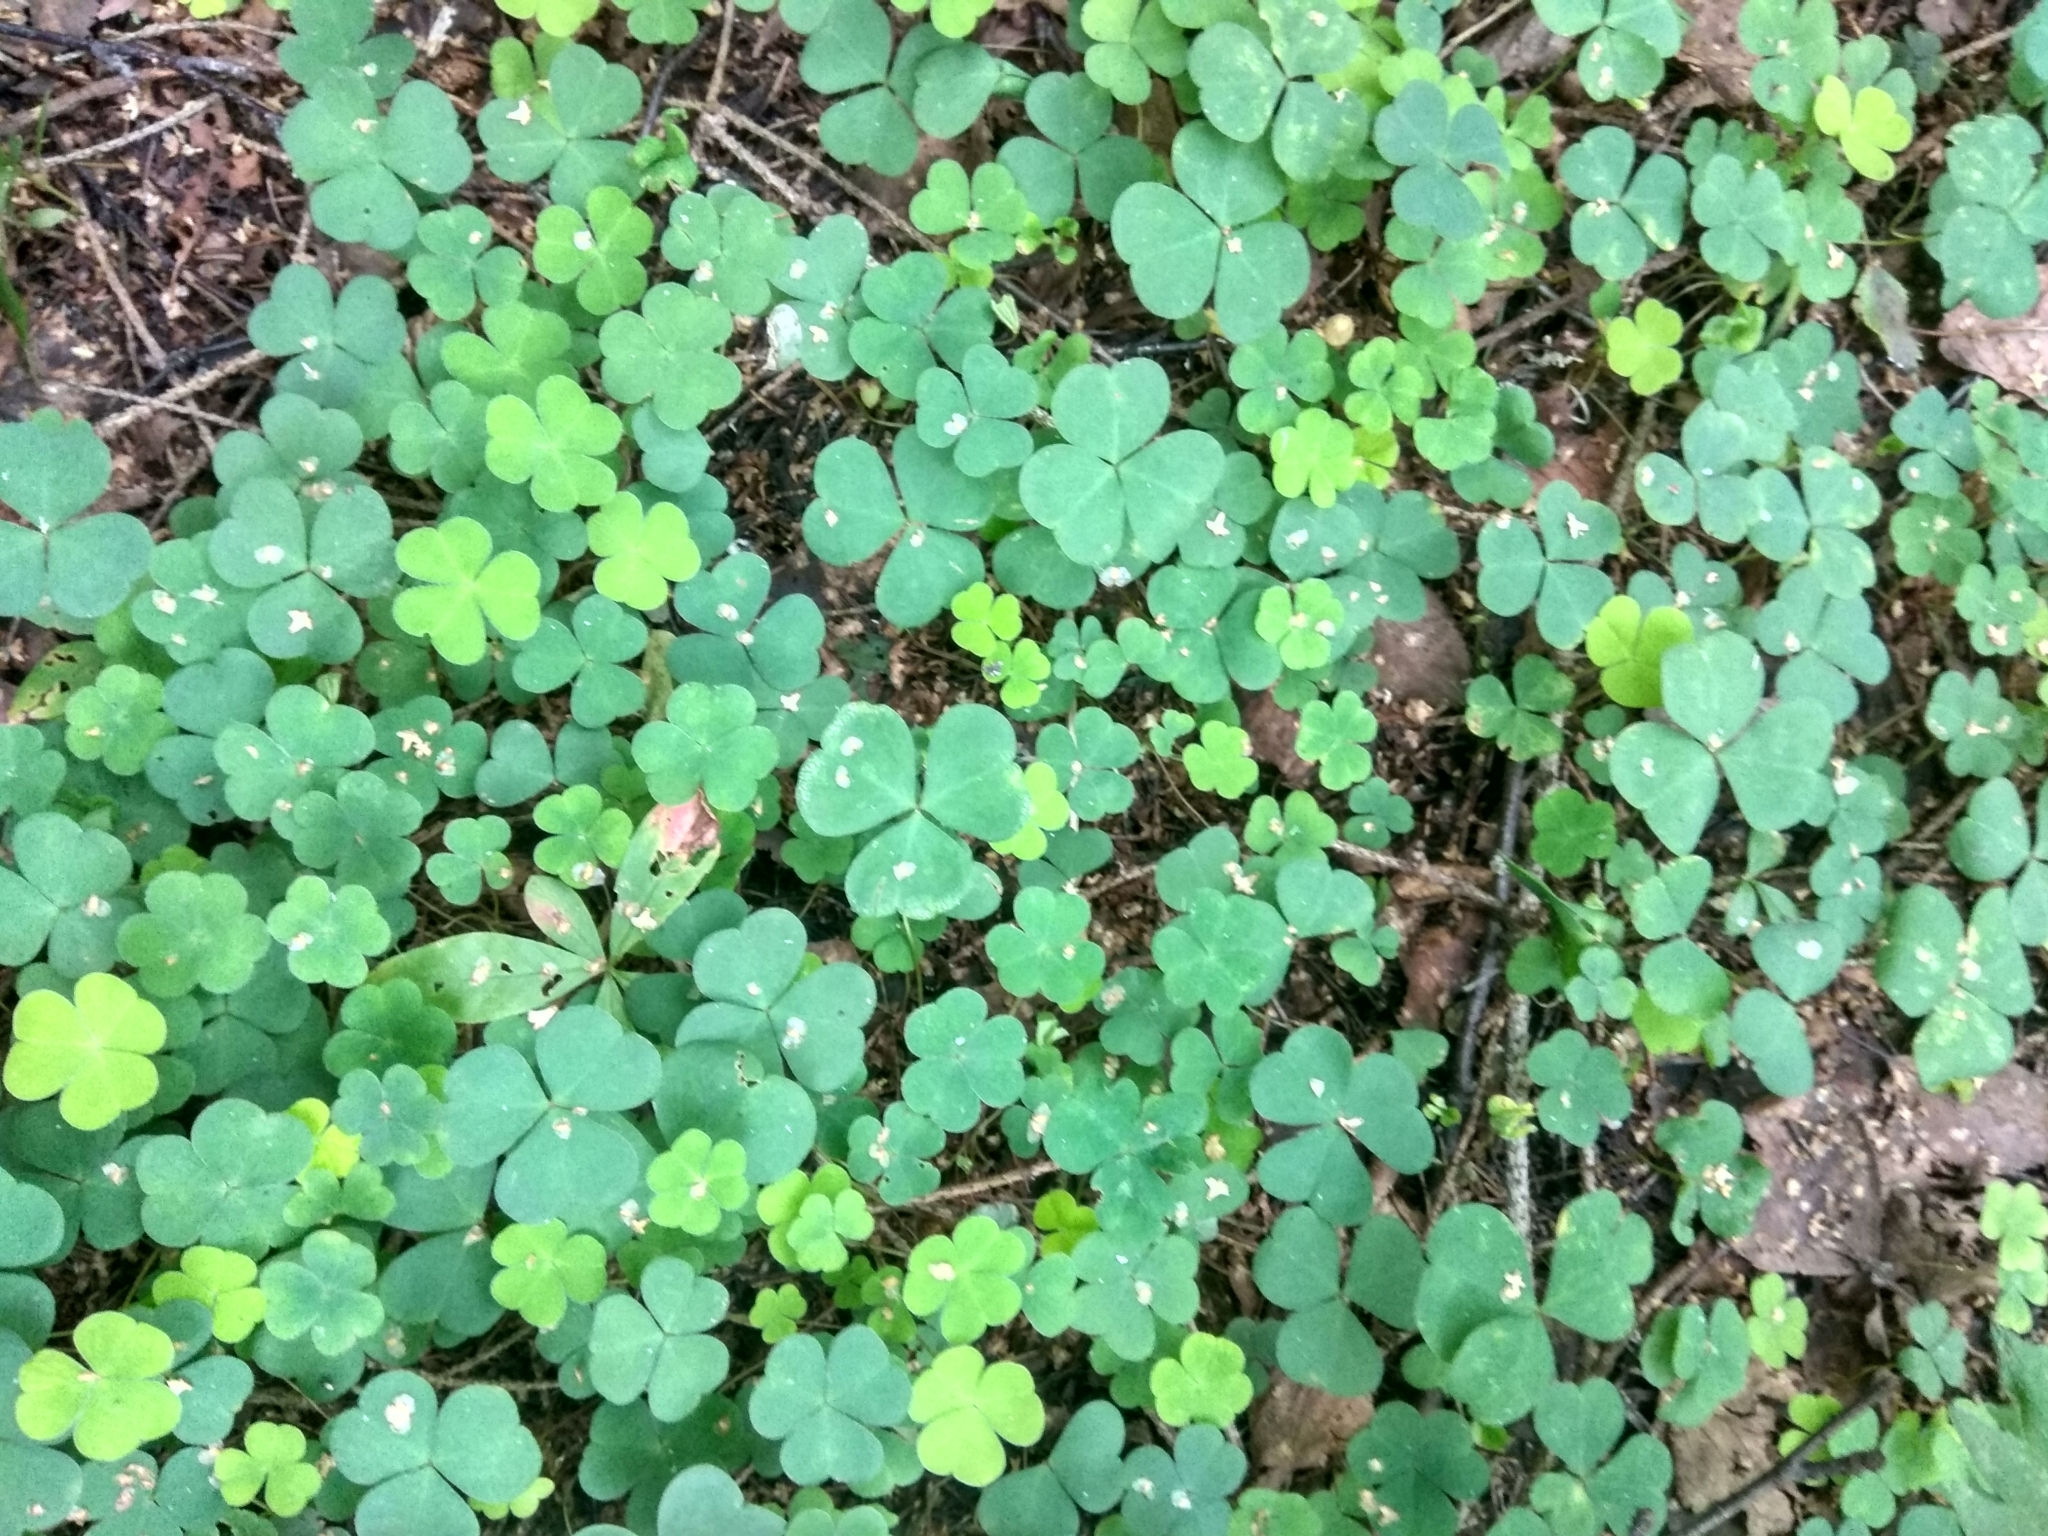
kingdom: Plantae
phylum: Tracheophyta
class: Magnoliopsida
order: Oxalidales
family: Oxalidaceae
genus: Oxalis
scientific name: Oxalis acetosella
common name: Wood-sorrel
